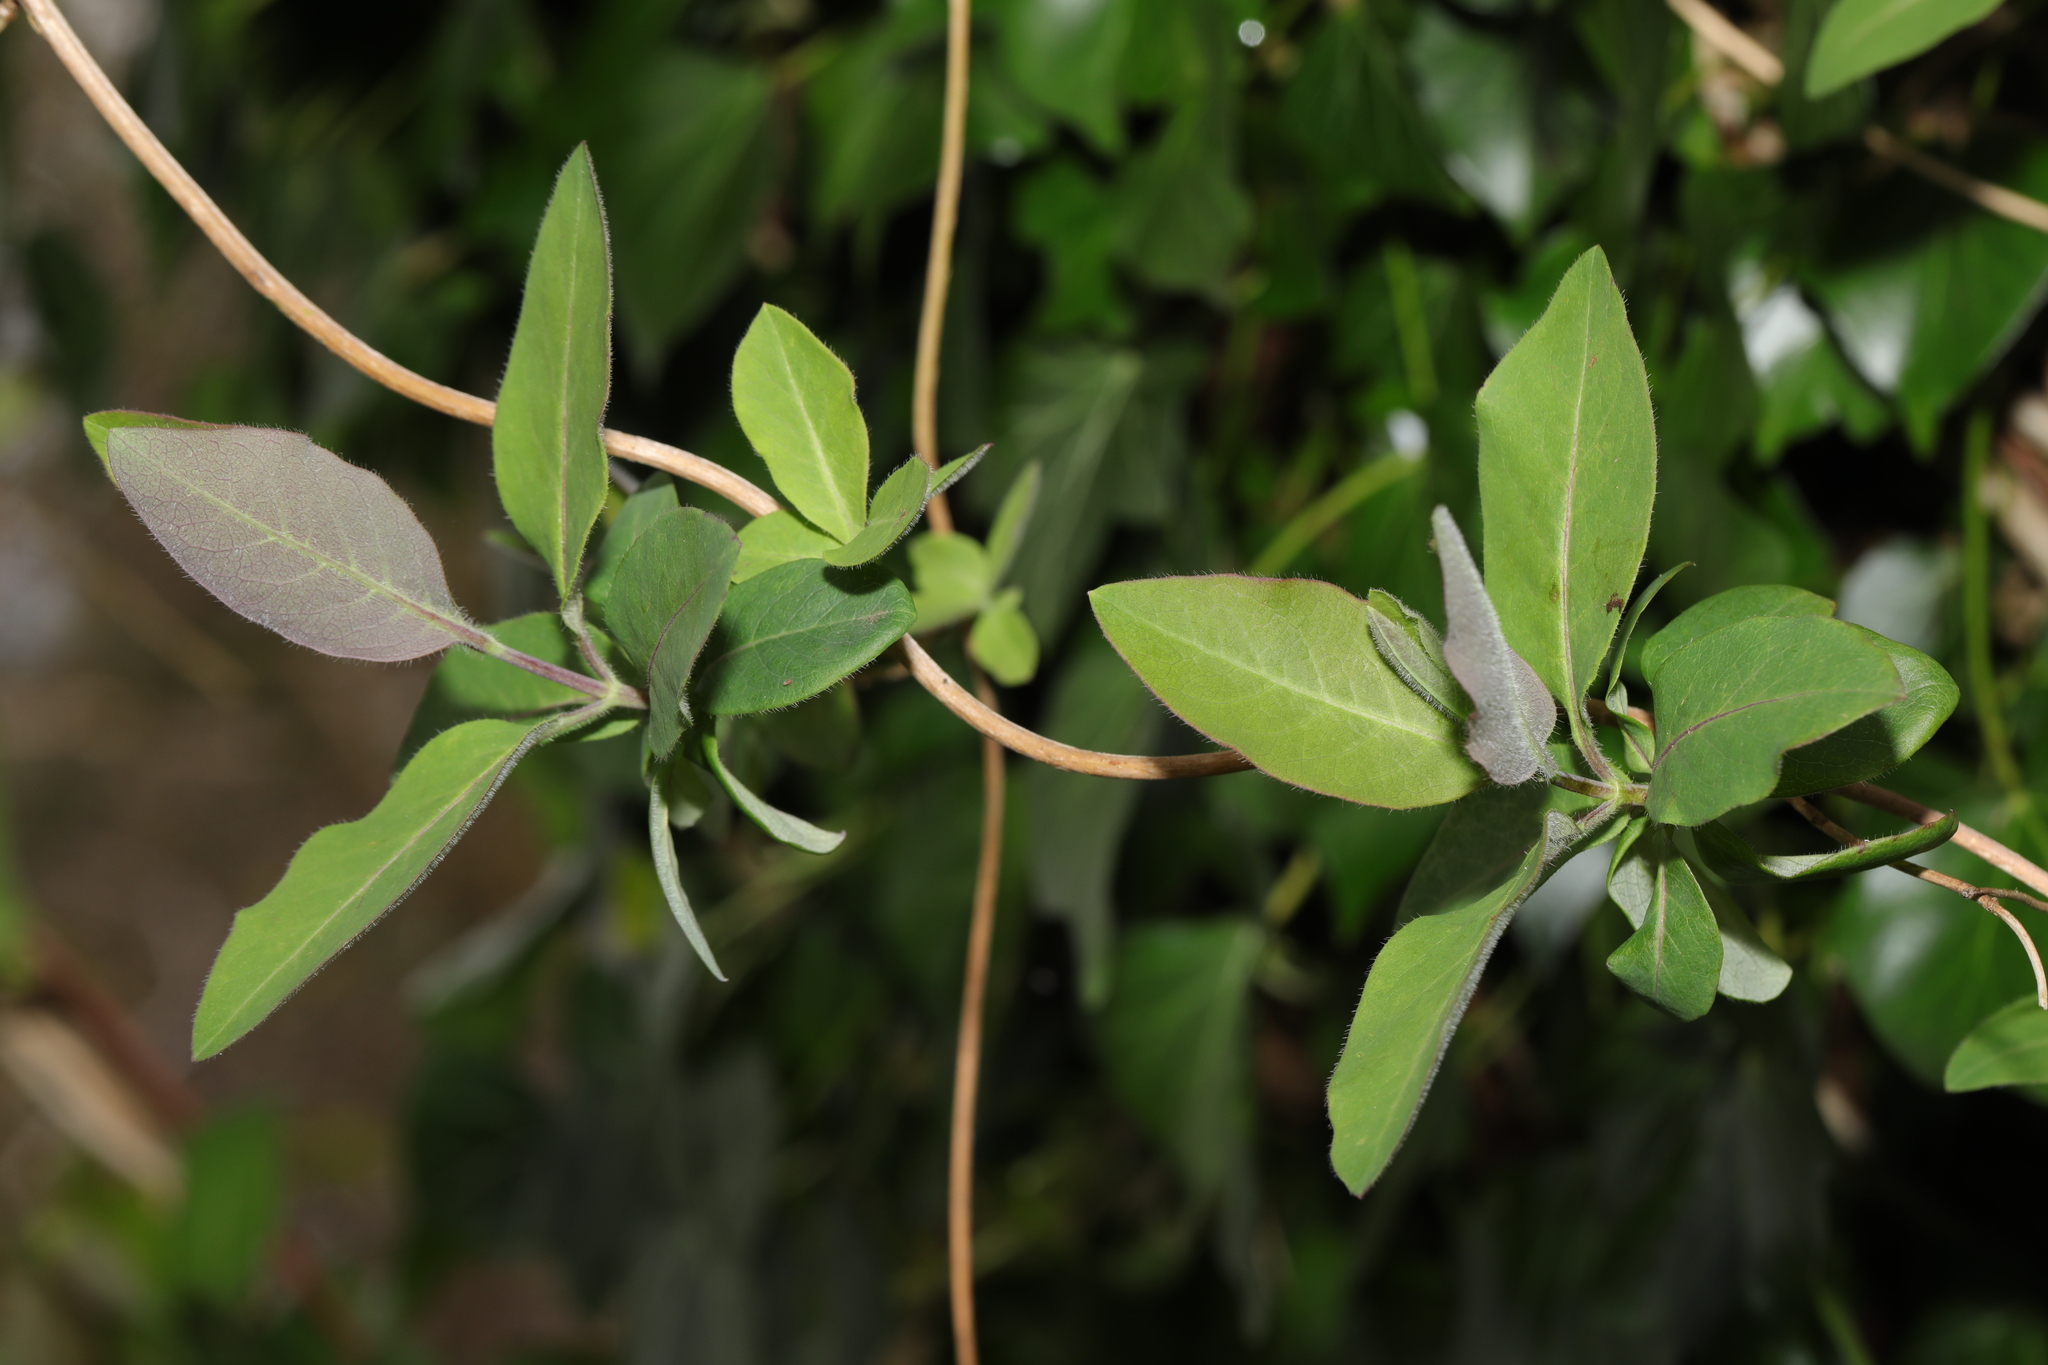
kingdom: Plantae
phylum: Tracheophyta
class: Magnoliopsida
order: Dipsacales
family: Caprifoliaceae
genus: Lonicera
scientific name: Lonicera periclymenum
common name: European honeysuckle
